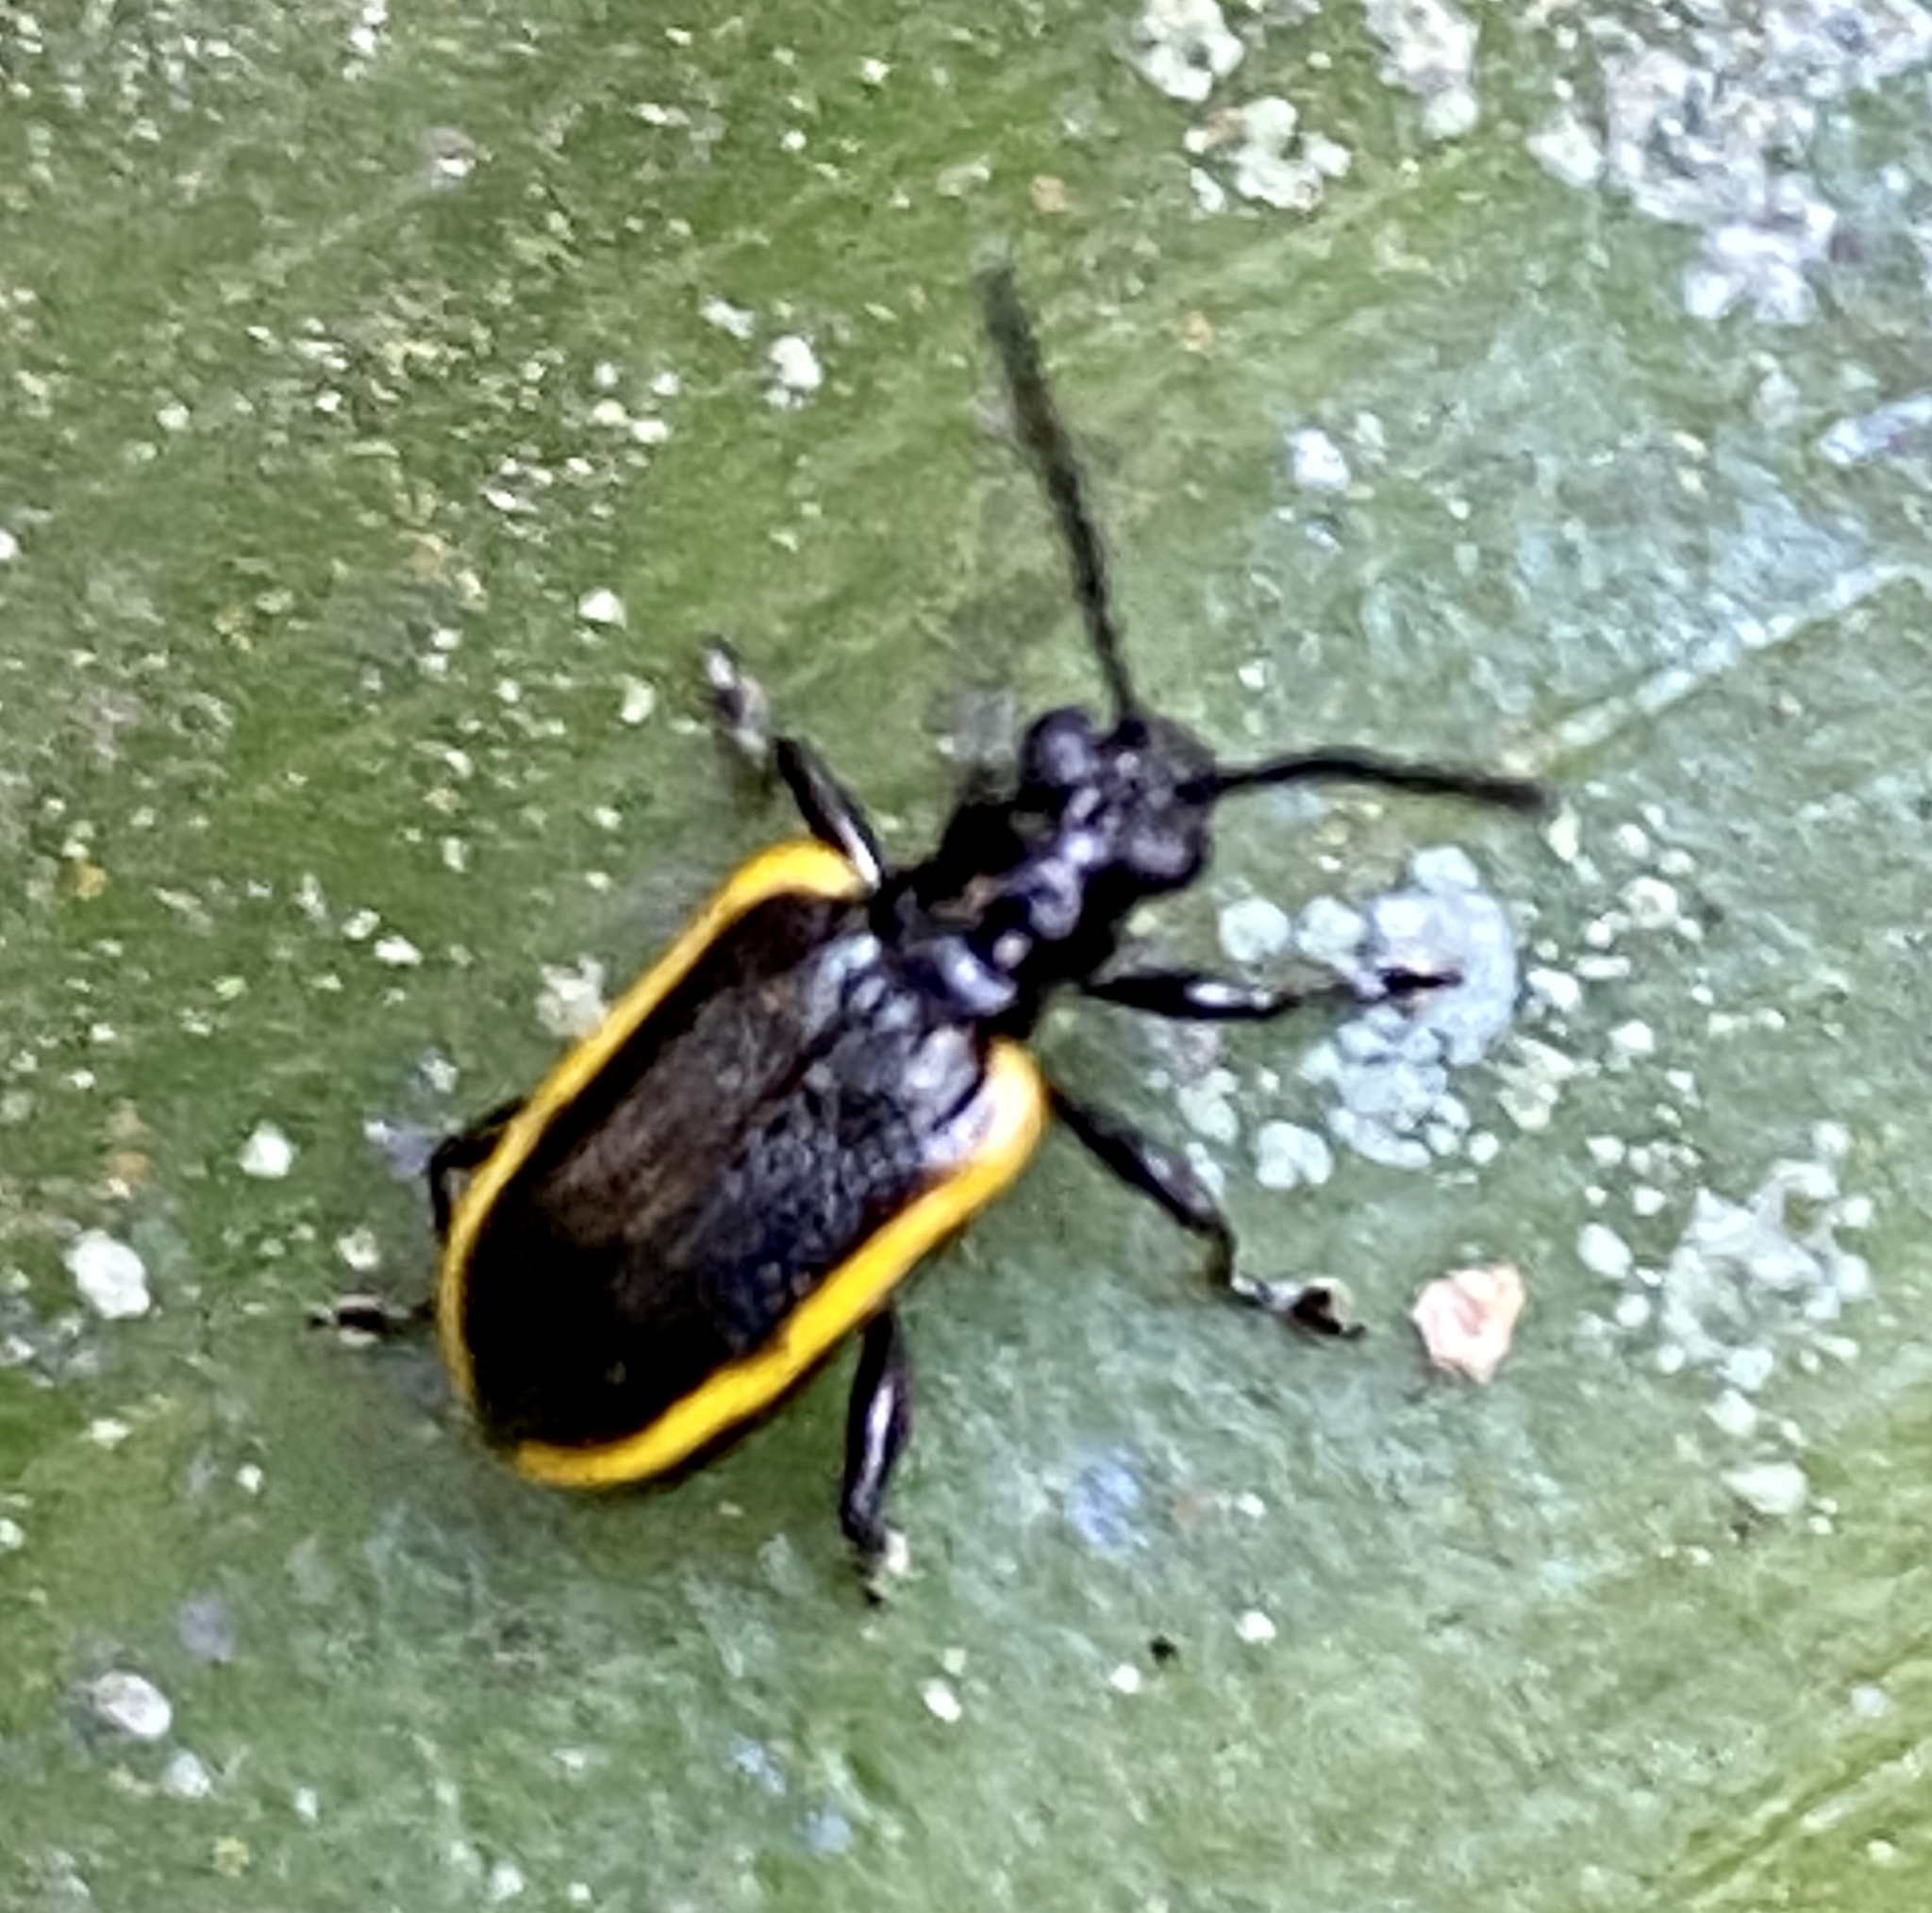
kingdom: Animalia
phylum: Arthropoda
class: Insecta
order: Coleoptera
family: Chrysomelidae
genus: Neolema
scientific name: Neolema
